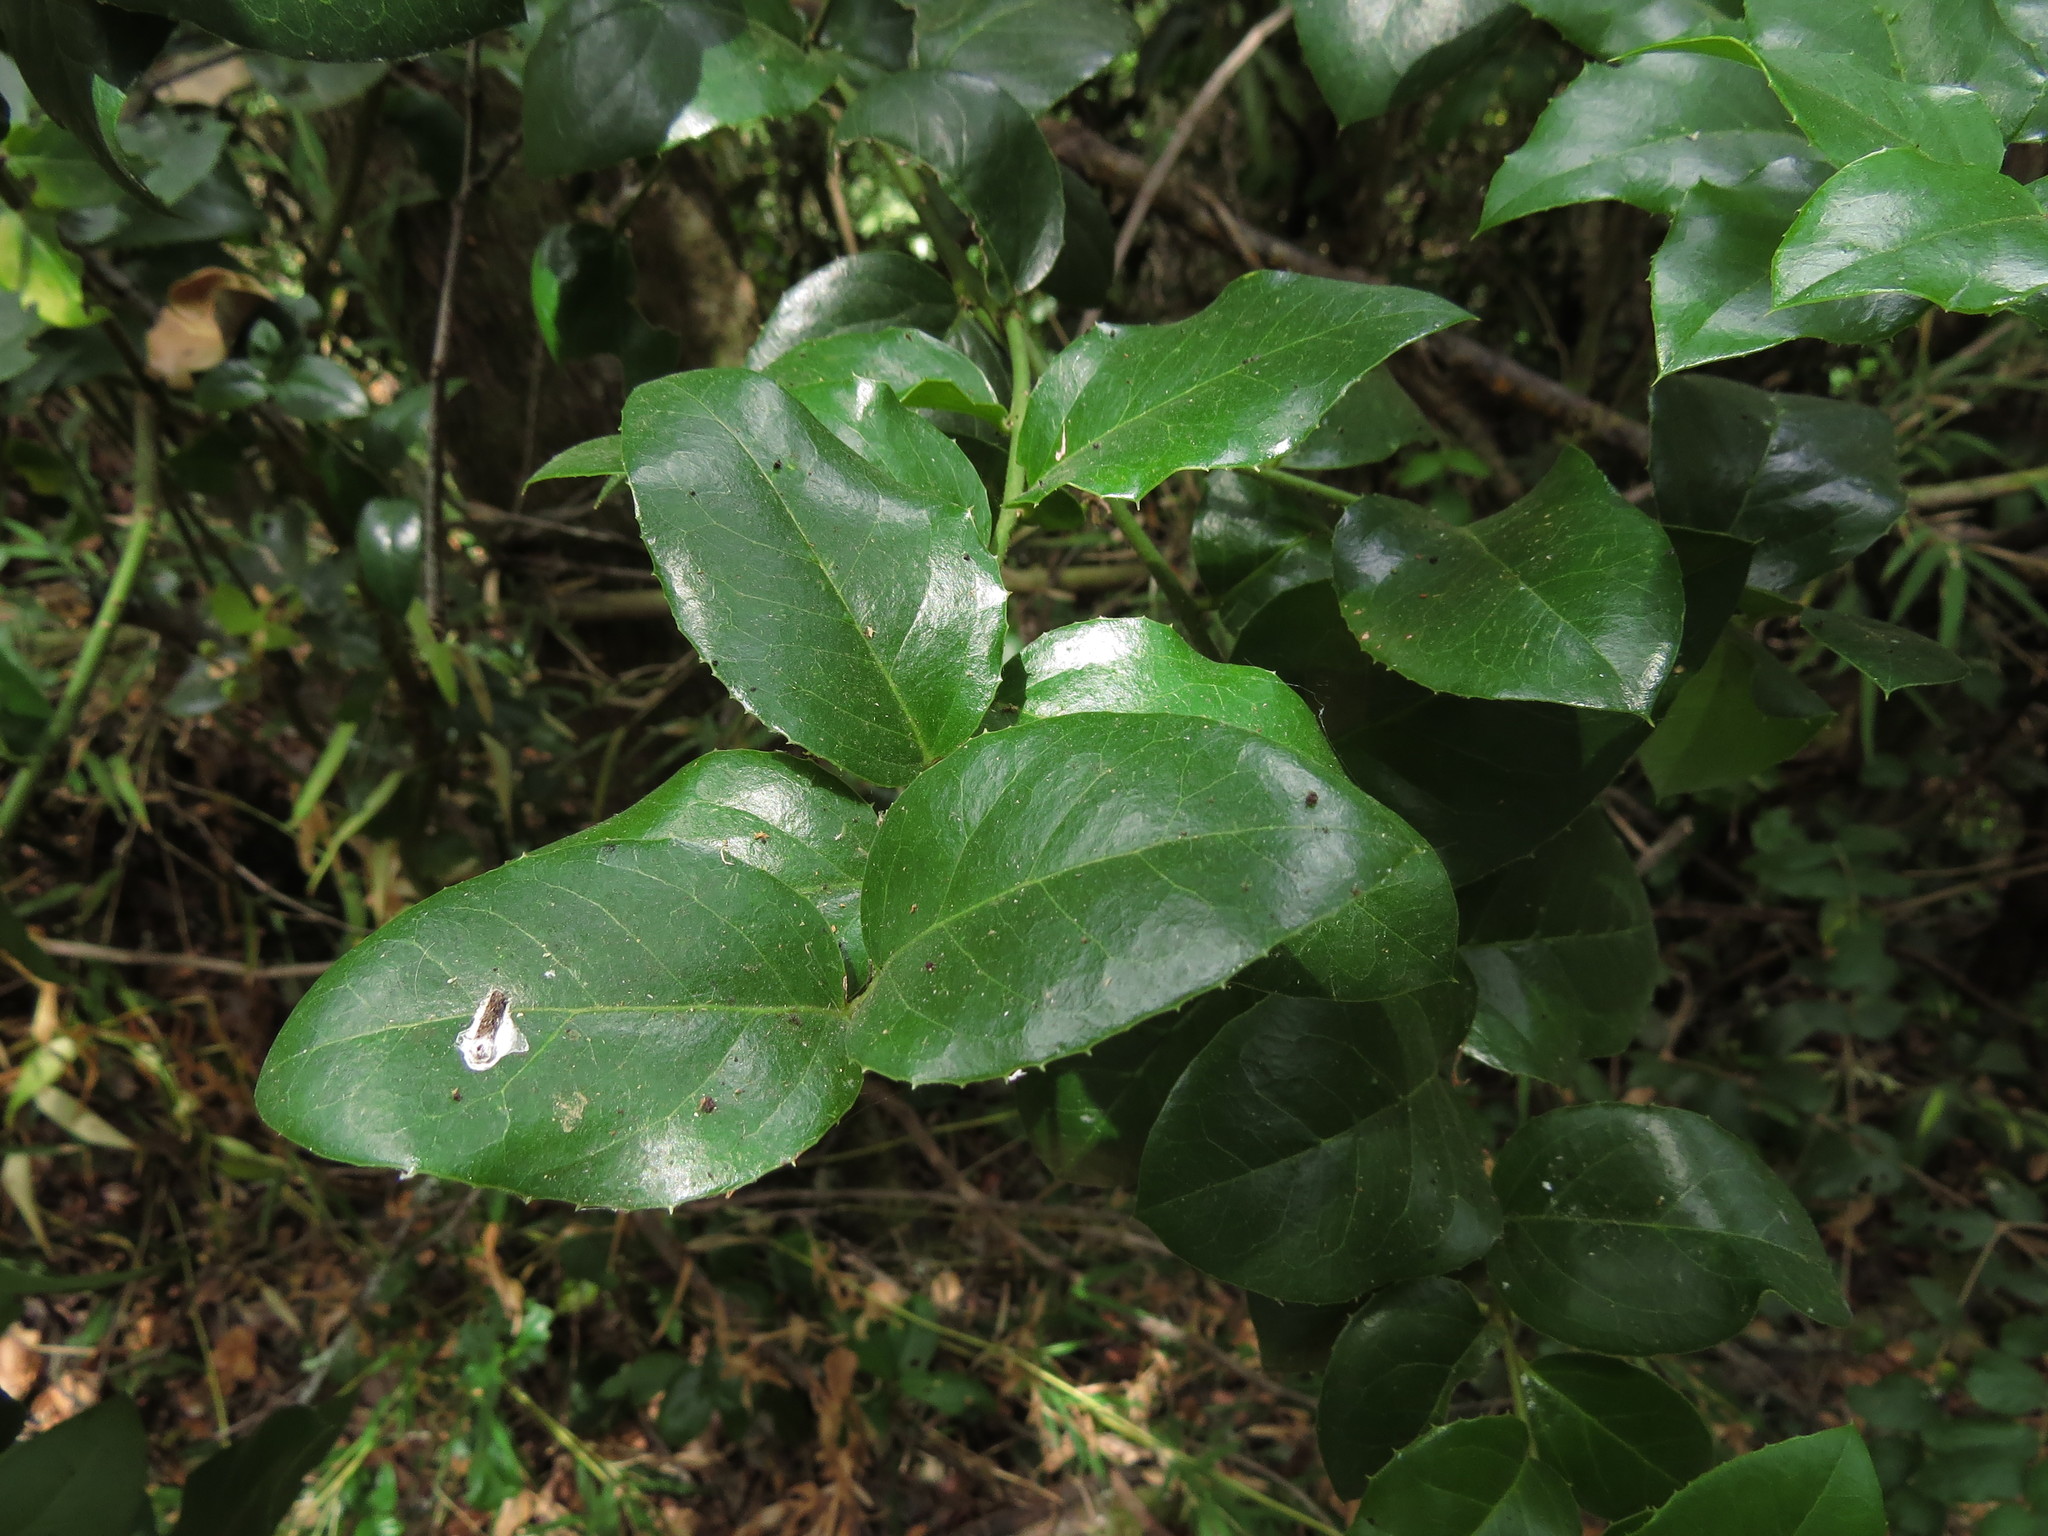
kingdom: Plantae
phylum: Tracheophyta
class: Magnoliopsida
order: Cardiopteridales
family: Cardiopteridaceae
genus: Citronella
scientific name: Citronella mucronata
